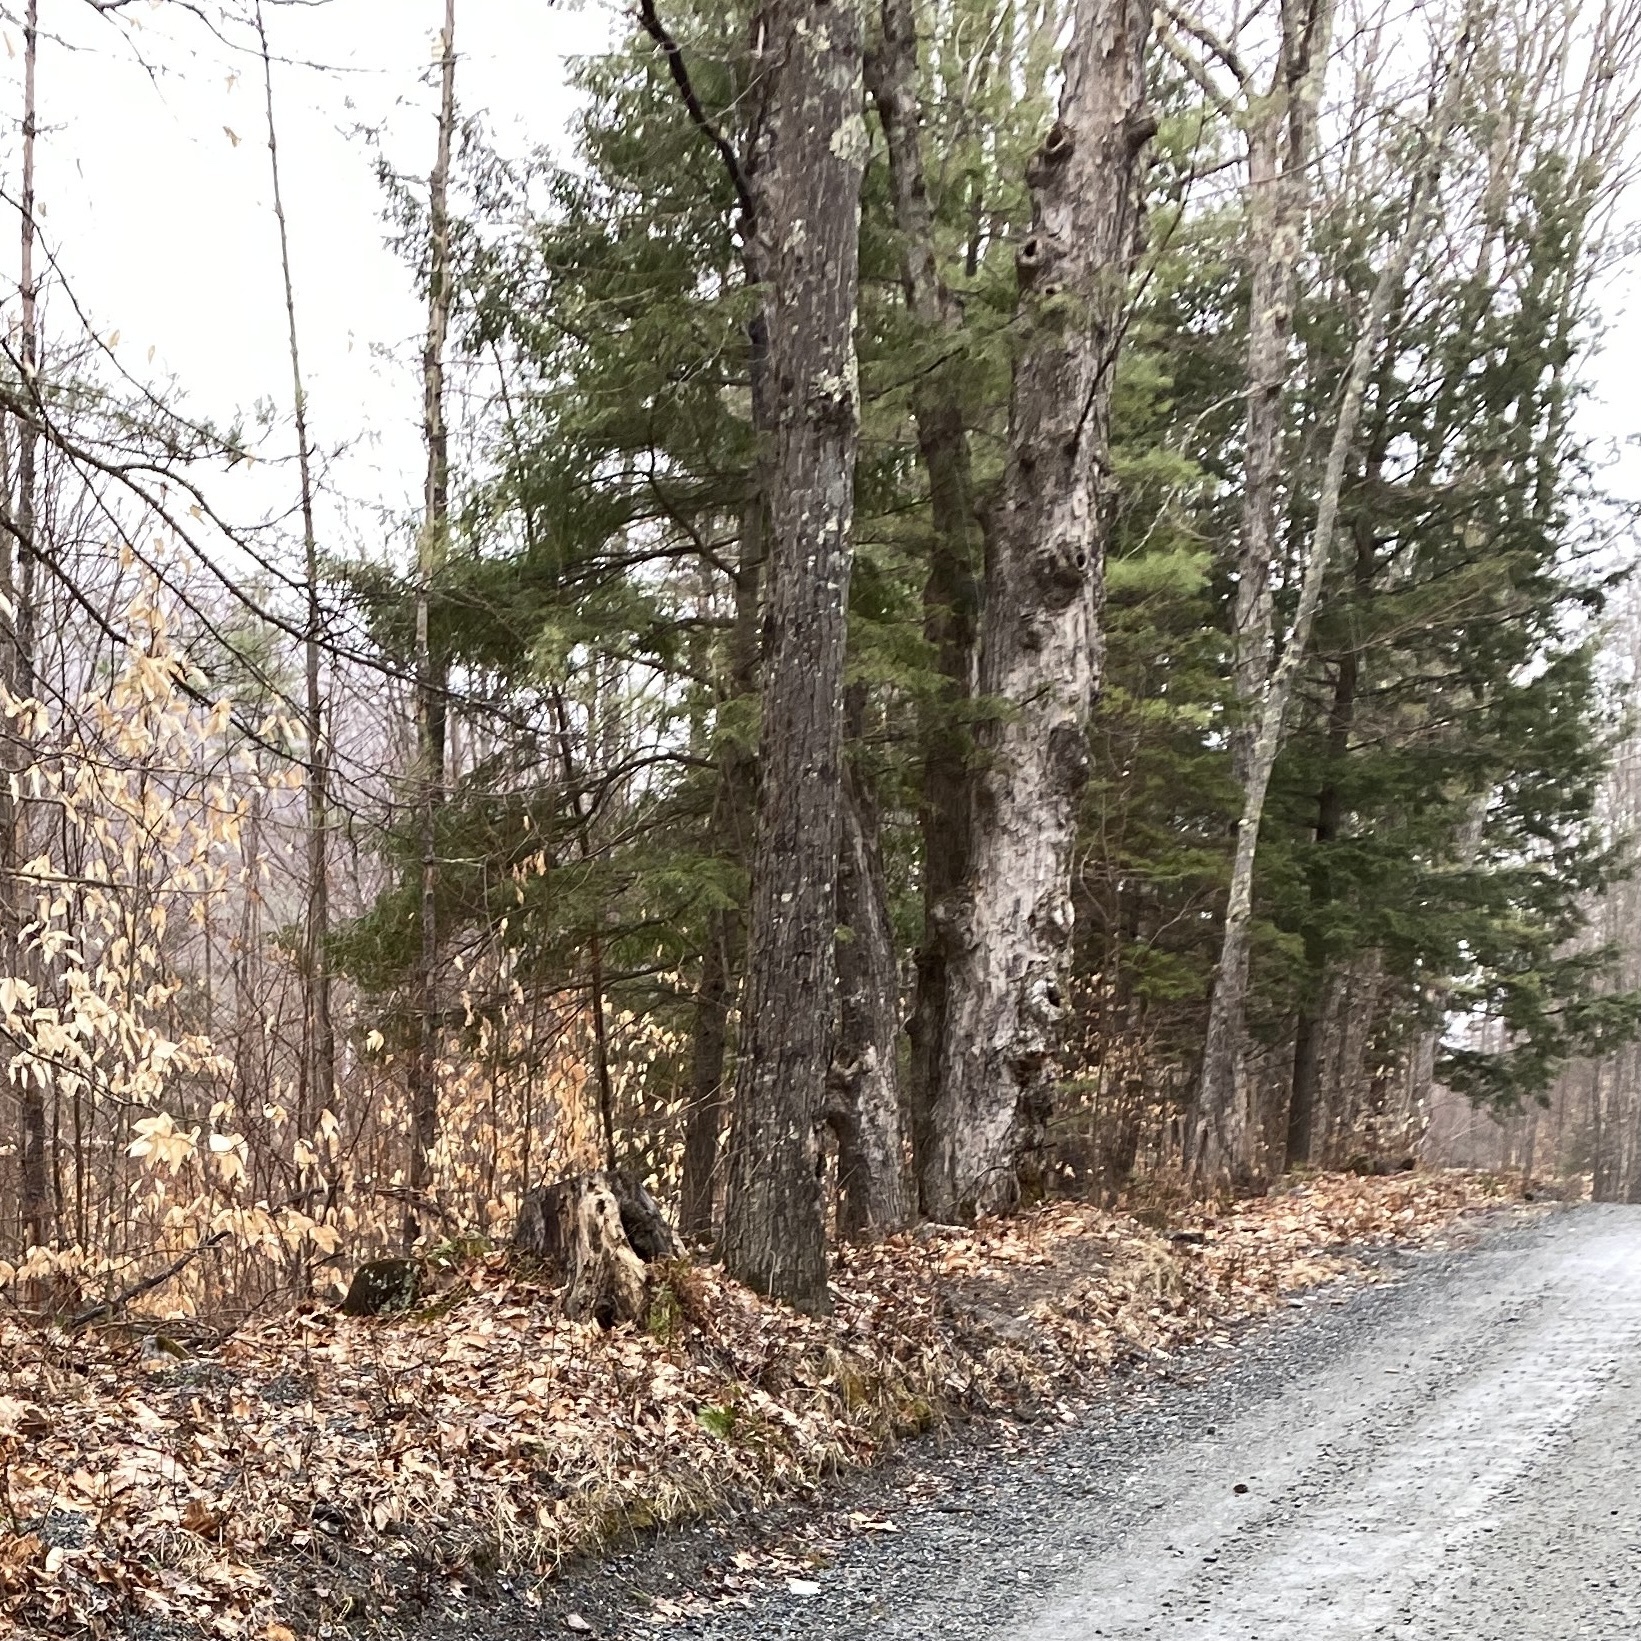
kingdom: Plantae
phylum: Tracheophyta
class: Magnoliopsida
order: Fagales
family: Fagaceae
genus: Fagus
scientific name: Fagus grandifolia
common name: American beech
